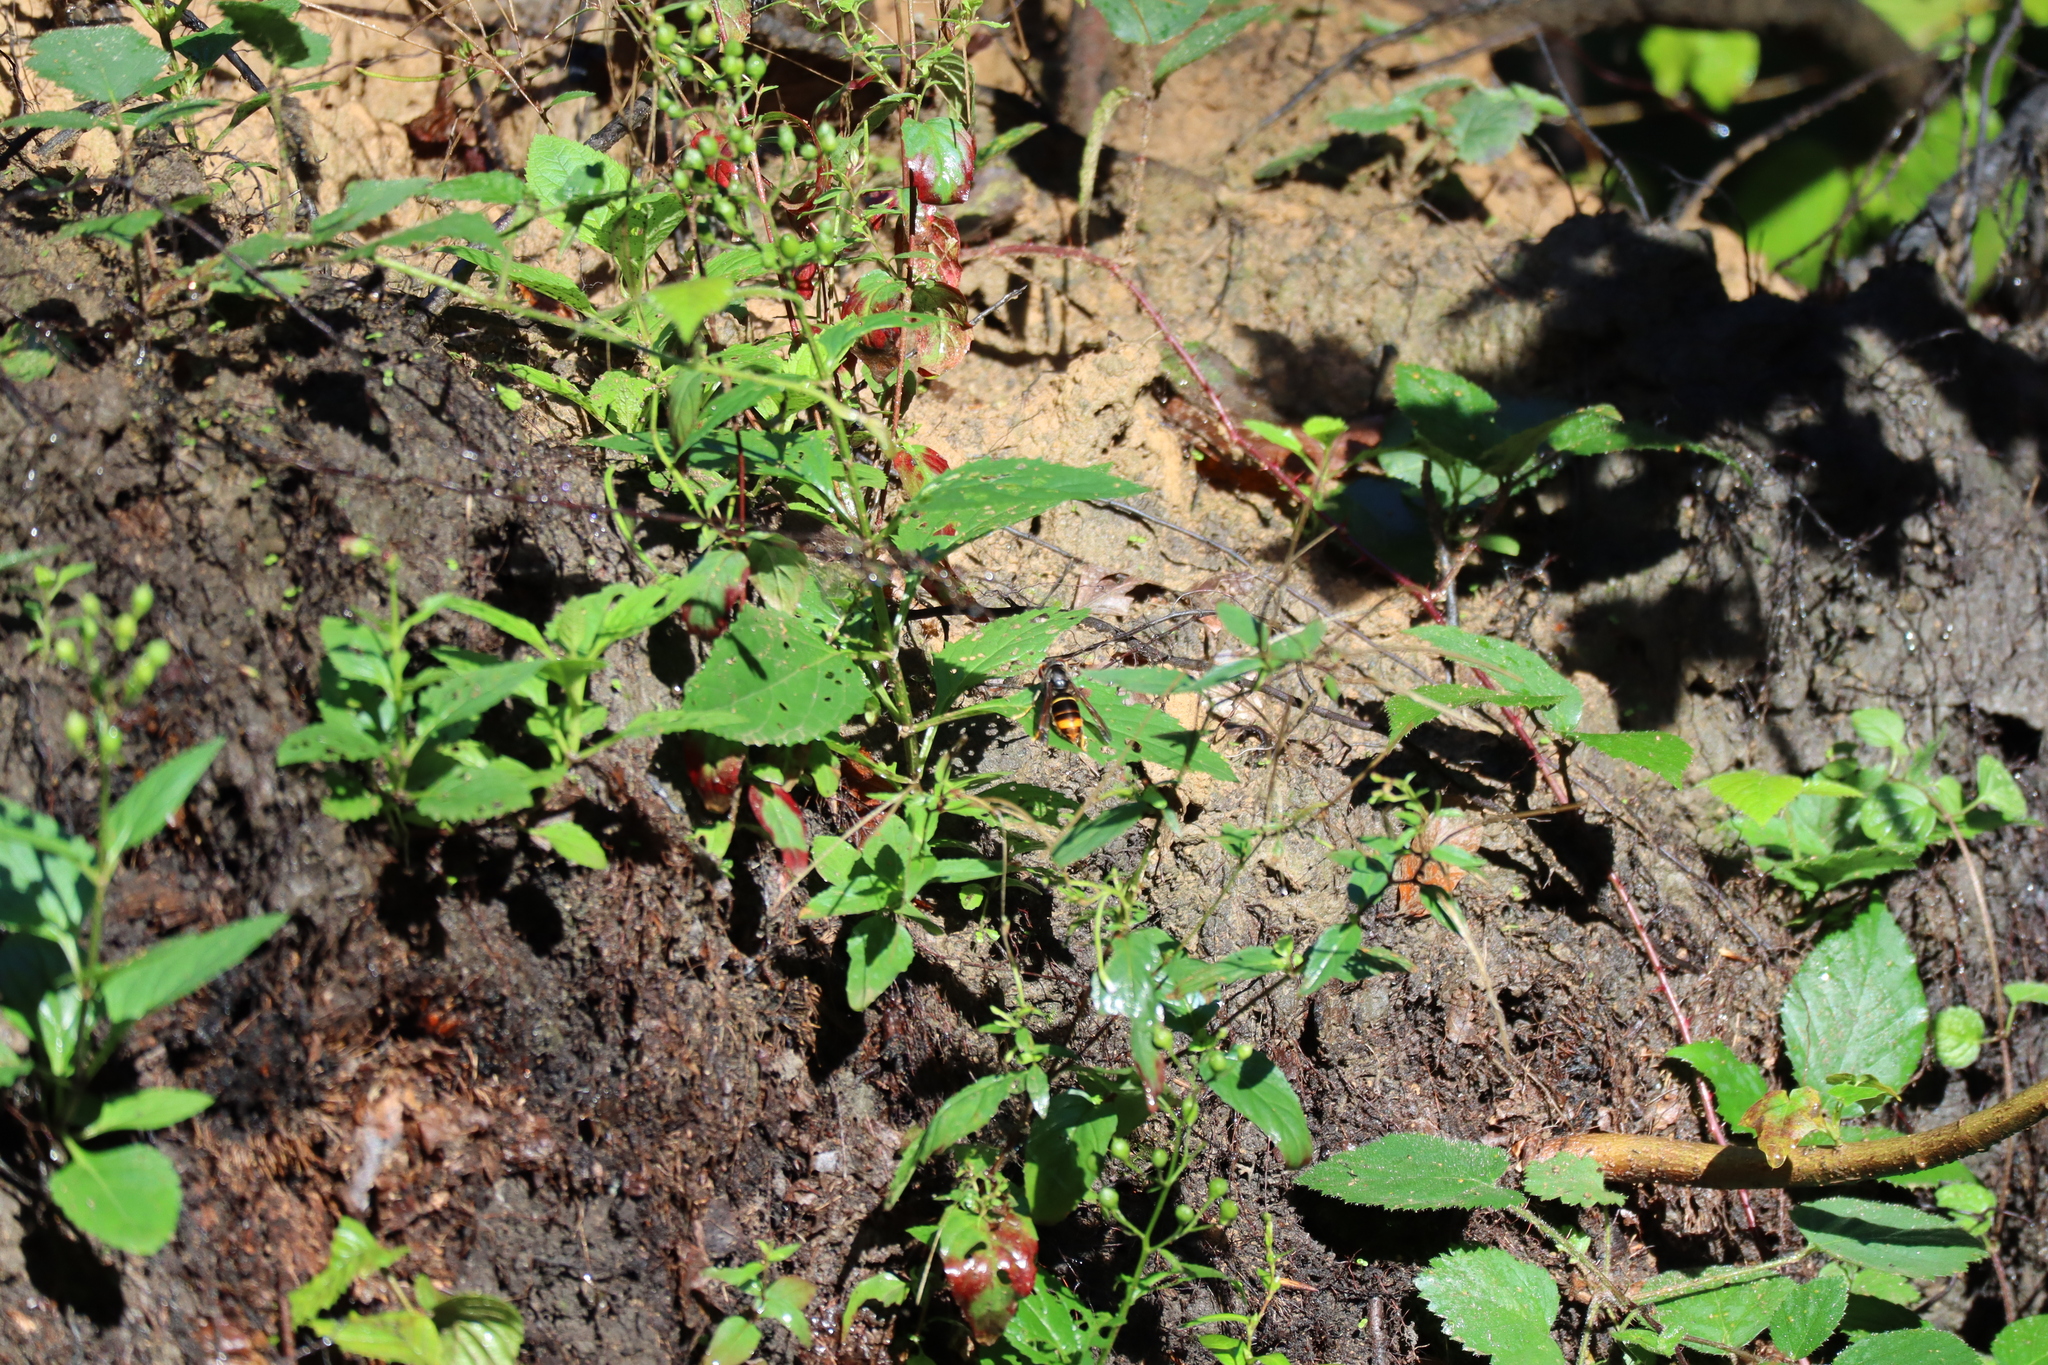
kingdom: Animalia
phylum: Arthropoda
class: Insecta
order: Hymenoptera
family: Vespidae
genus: Vespa
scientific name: Vespa velutina
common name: Asian hornet
